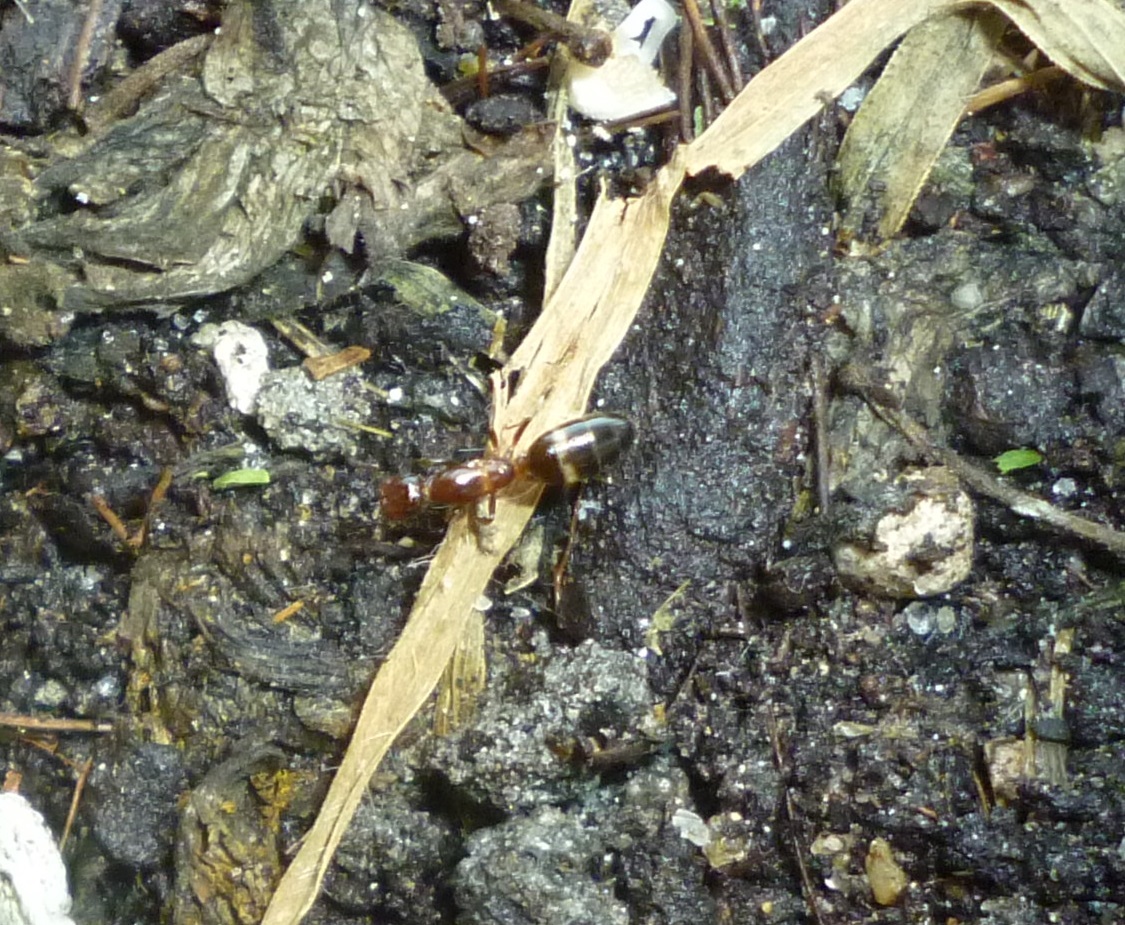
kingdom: Animalia
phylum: Arthropoda
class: Insecta
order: Hymenoptera
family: Formicidae
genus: Camponotus
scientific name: Camponotus truncatus
